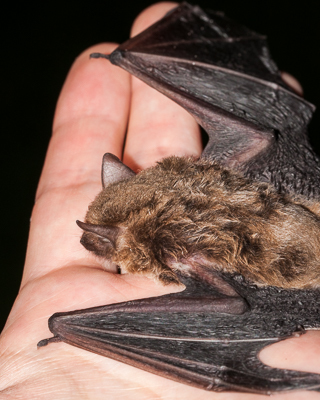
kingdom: Animalia
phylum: Chordata
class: Mammalia
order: Chiroptera
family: Vespertilionidae
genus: Laephotis
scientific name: Laephotis capensis
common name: Cape serotine
